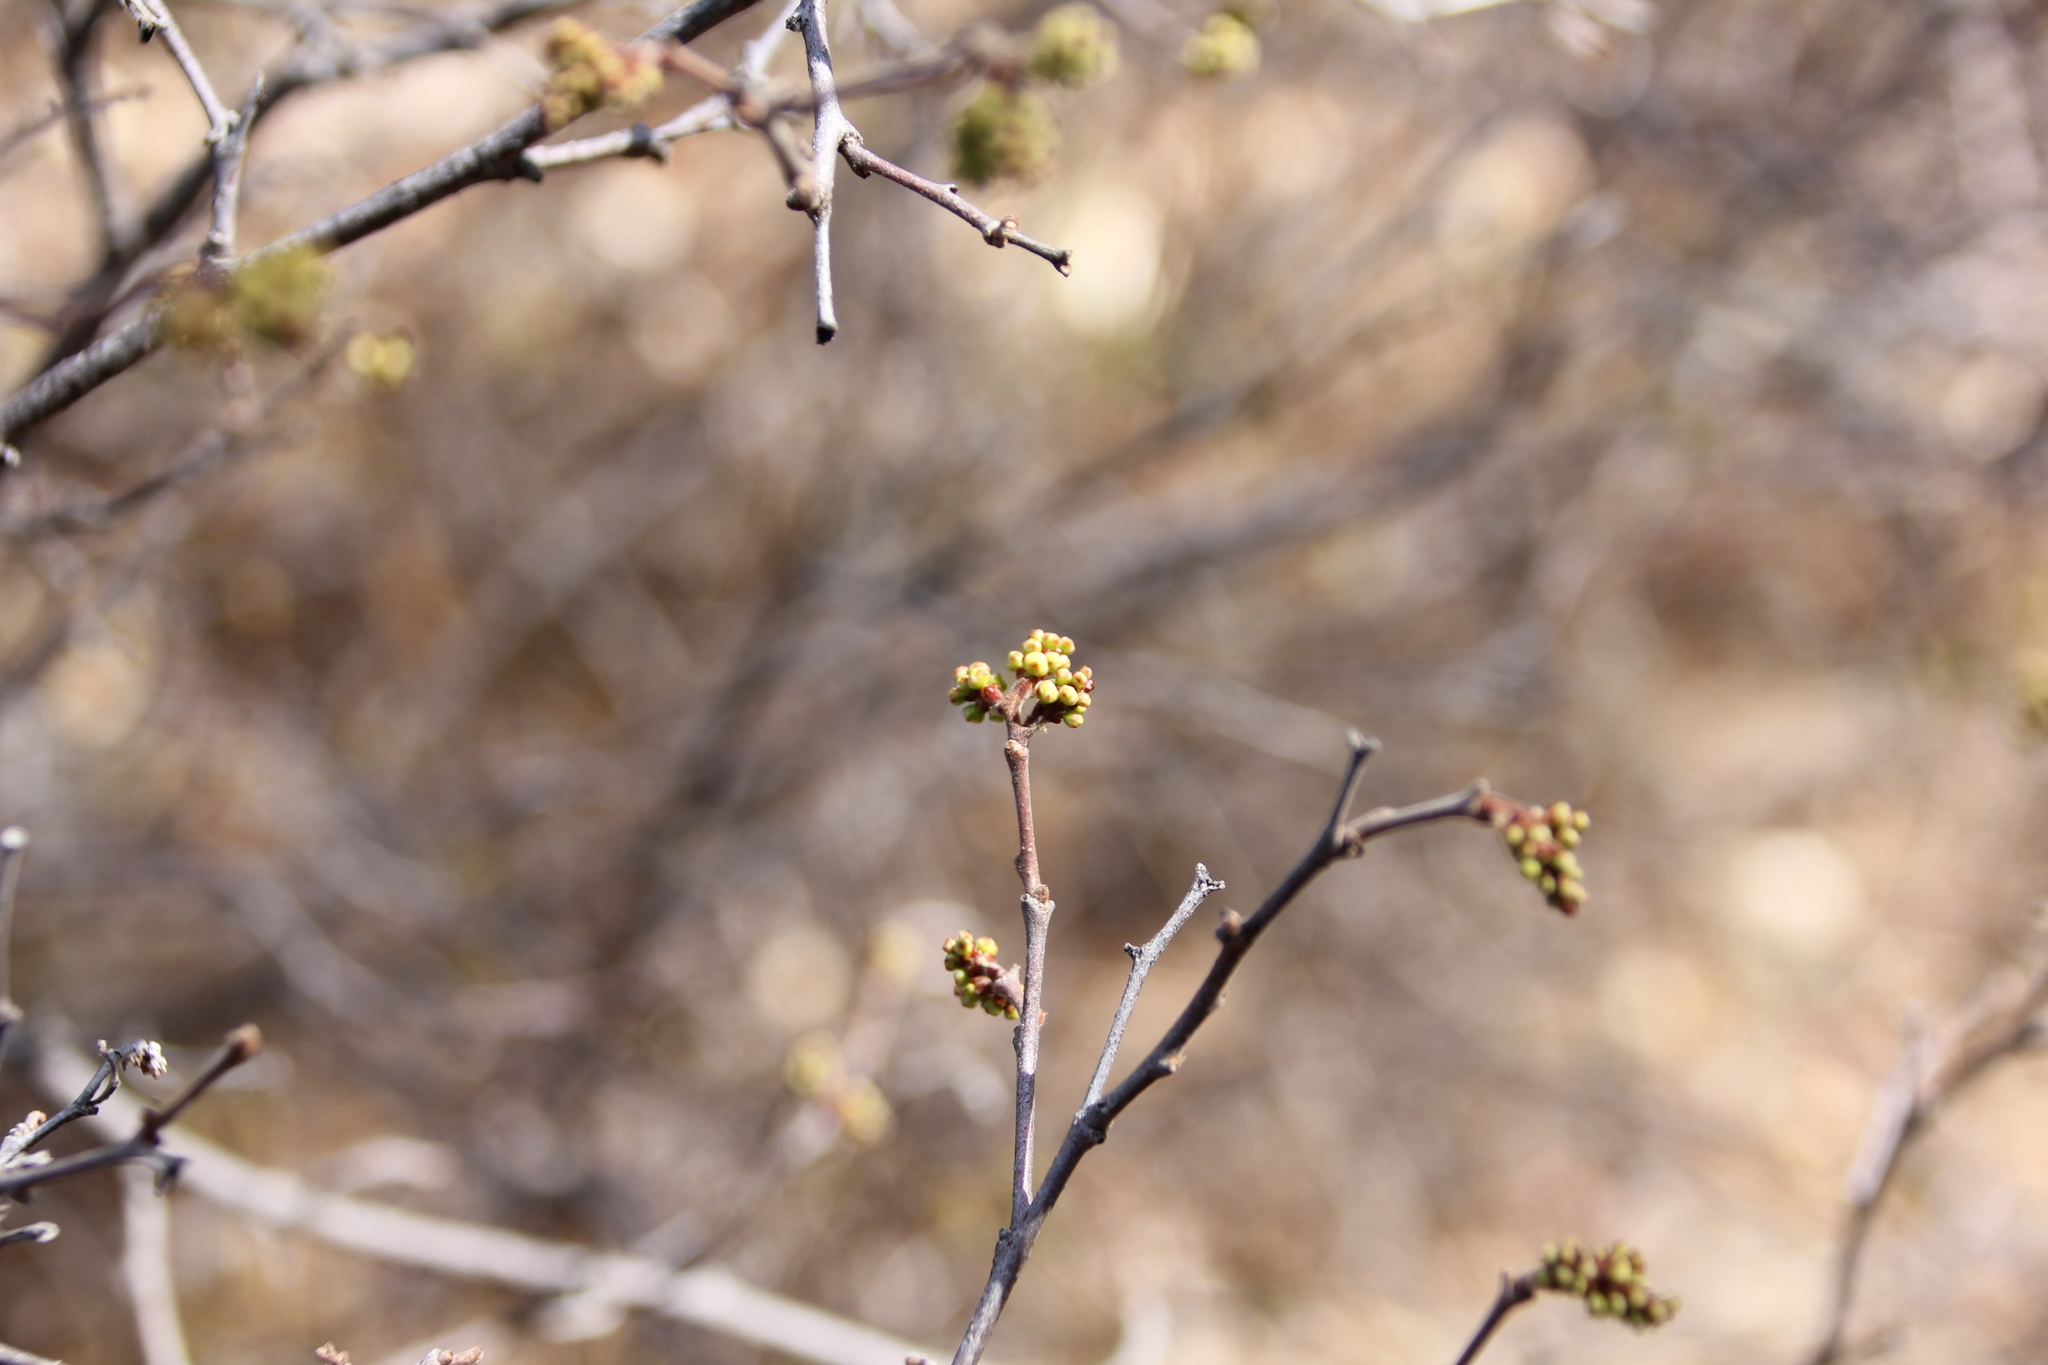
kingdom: Plantae
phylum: Tracheophyta
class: Magnoliopsida
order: Sapindales
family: Anacardiaceae
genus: Rhus
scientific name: Rhus aromatica
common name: Aromatic sumac
